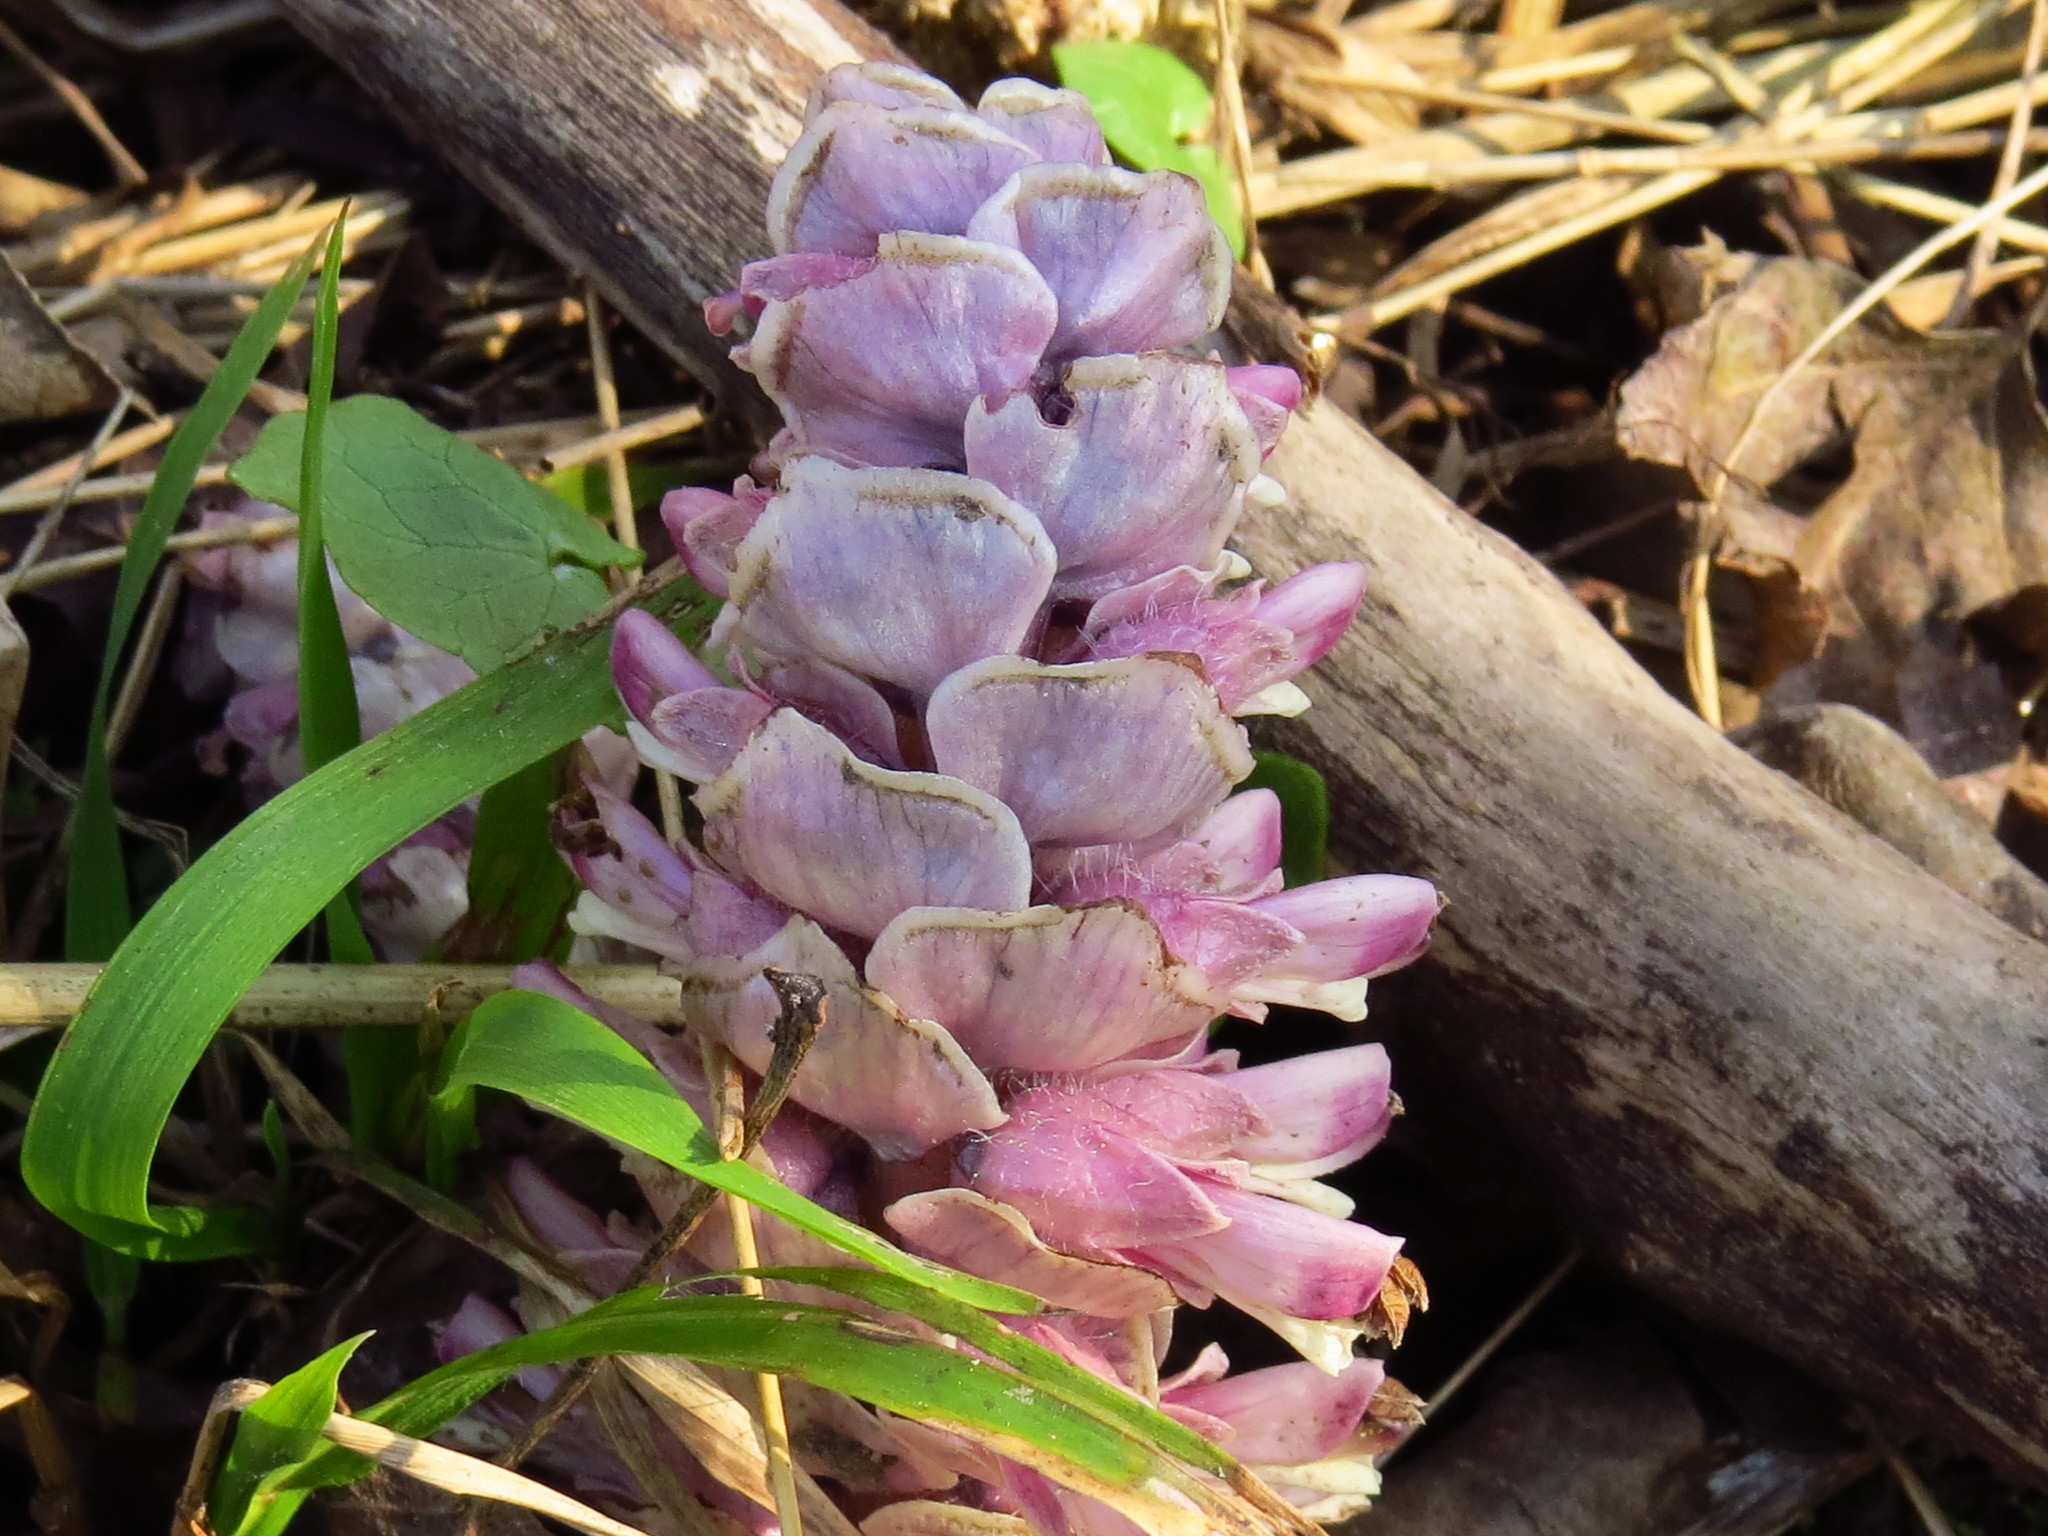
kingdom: Plantae
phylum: Tracheophyta
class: Magnoliopsida
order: Lamiales
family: Orobanchaceae
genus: Lathraea
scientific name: Lathraea squamaria
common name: Toothwort
